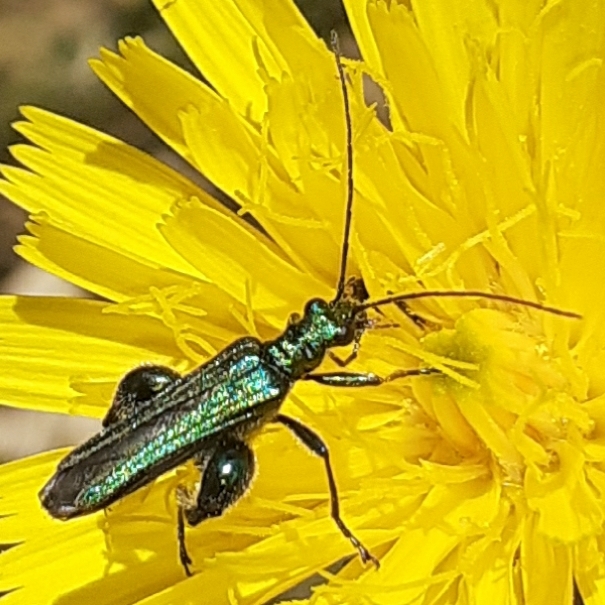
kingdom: Animalia
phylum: Arthropoda
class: Insecta
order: Coleoptera
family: Oedemeridae
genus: Oedemera
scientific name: Oedemera nobilis
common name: Swollen-thighed beetle
